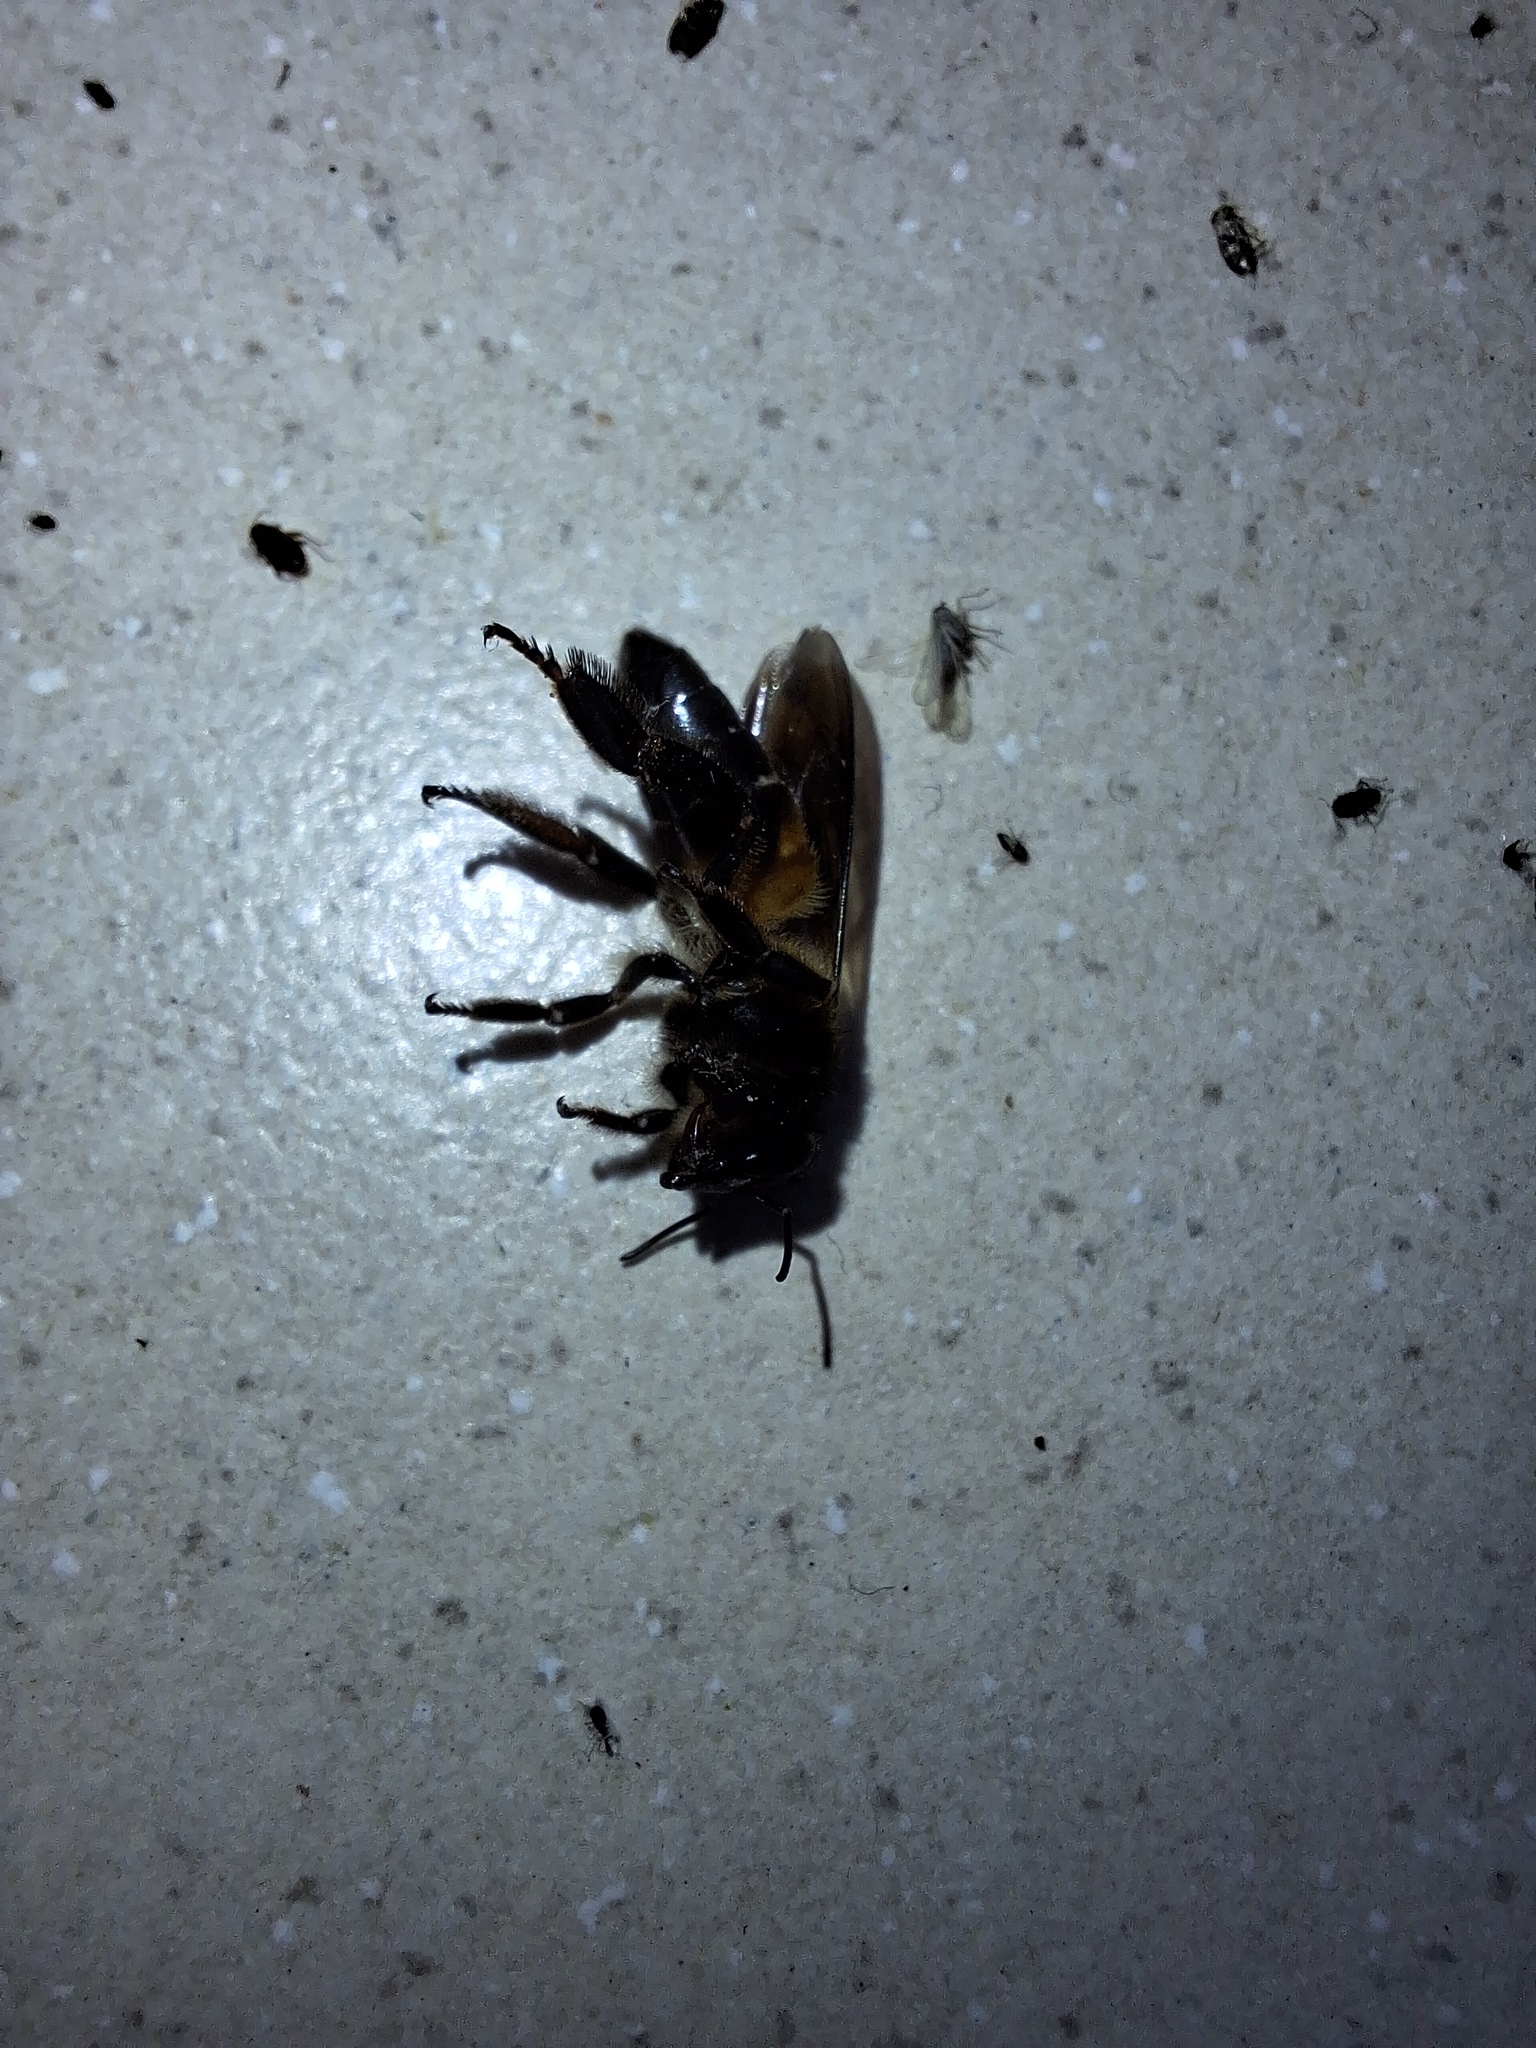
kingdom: Animalia
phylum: Arthropoda
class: Insecta
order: Hymenoptera
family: Apidae
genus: Apis
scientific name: Apis dorsata
